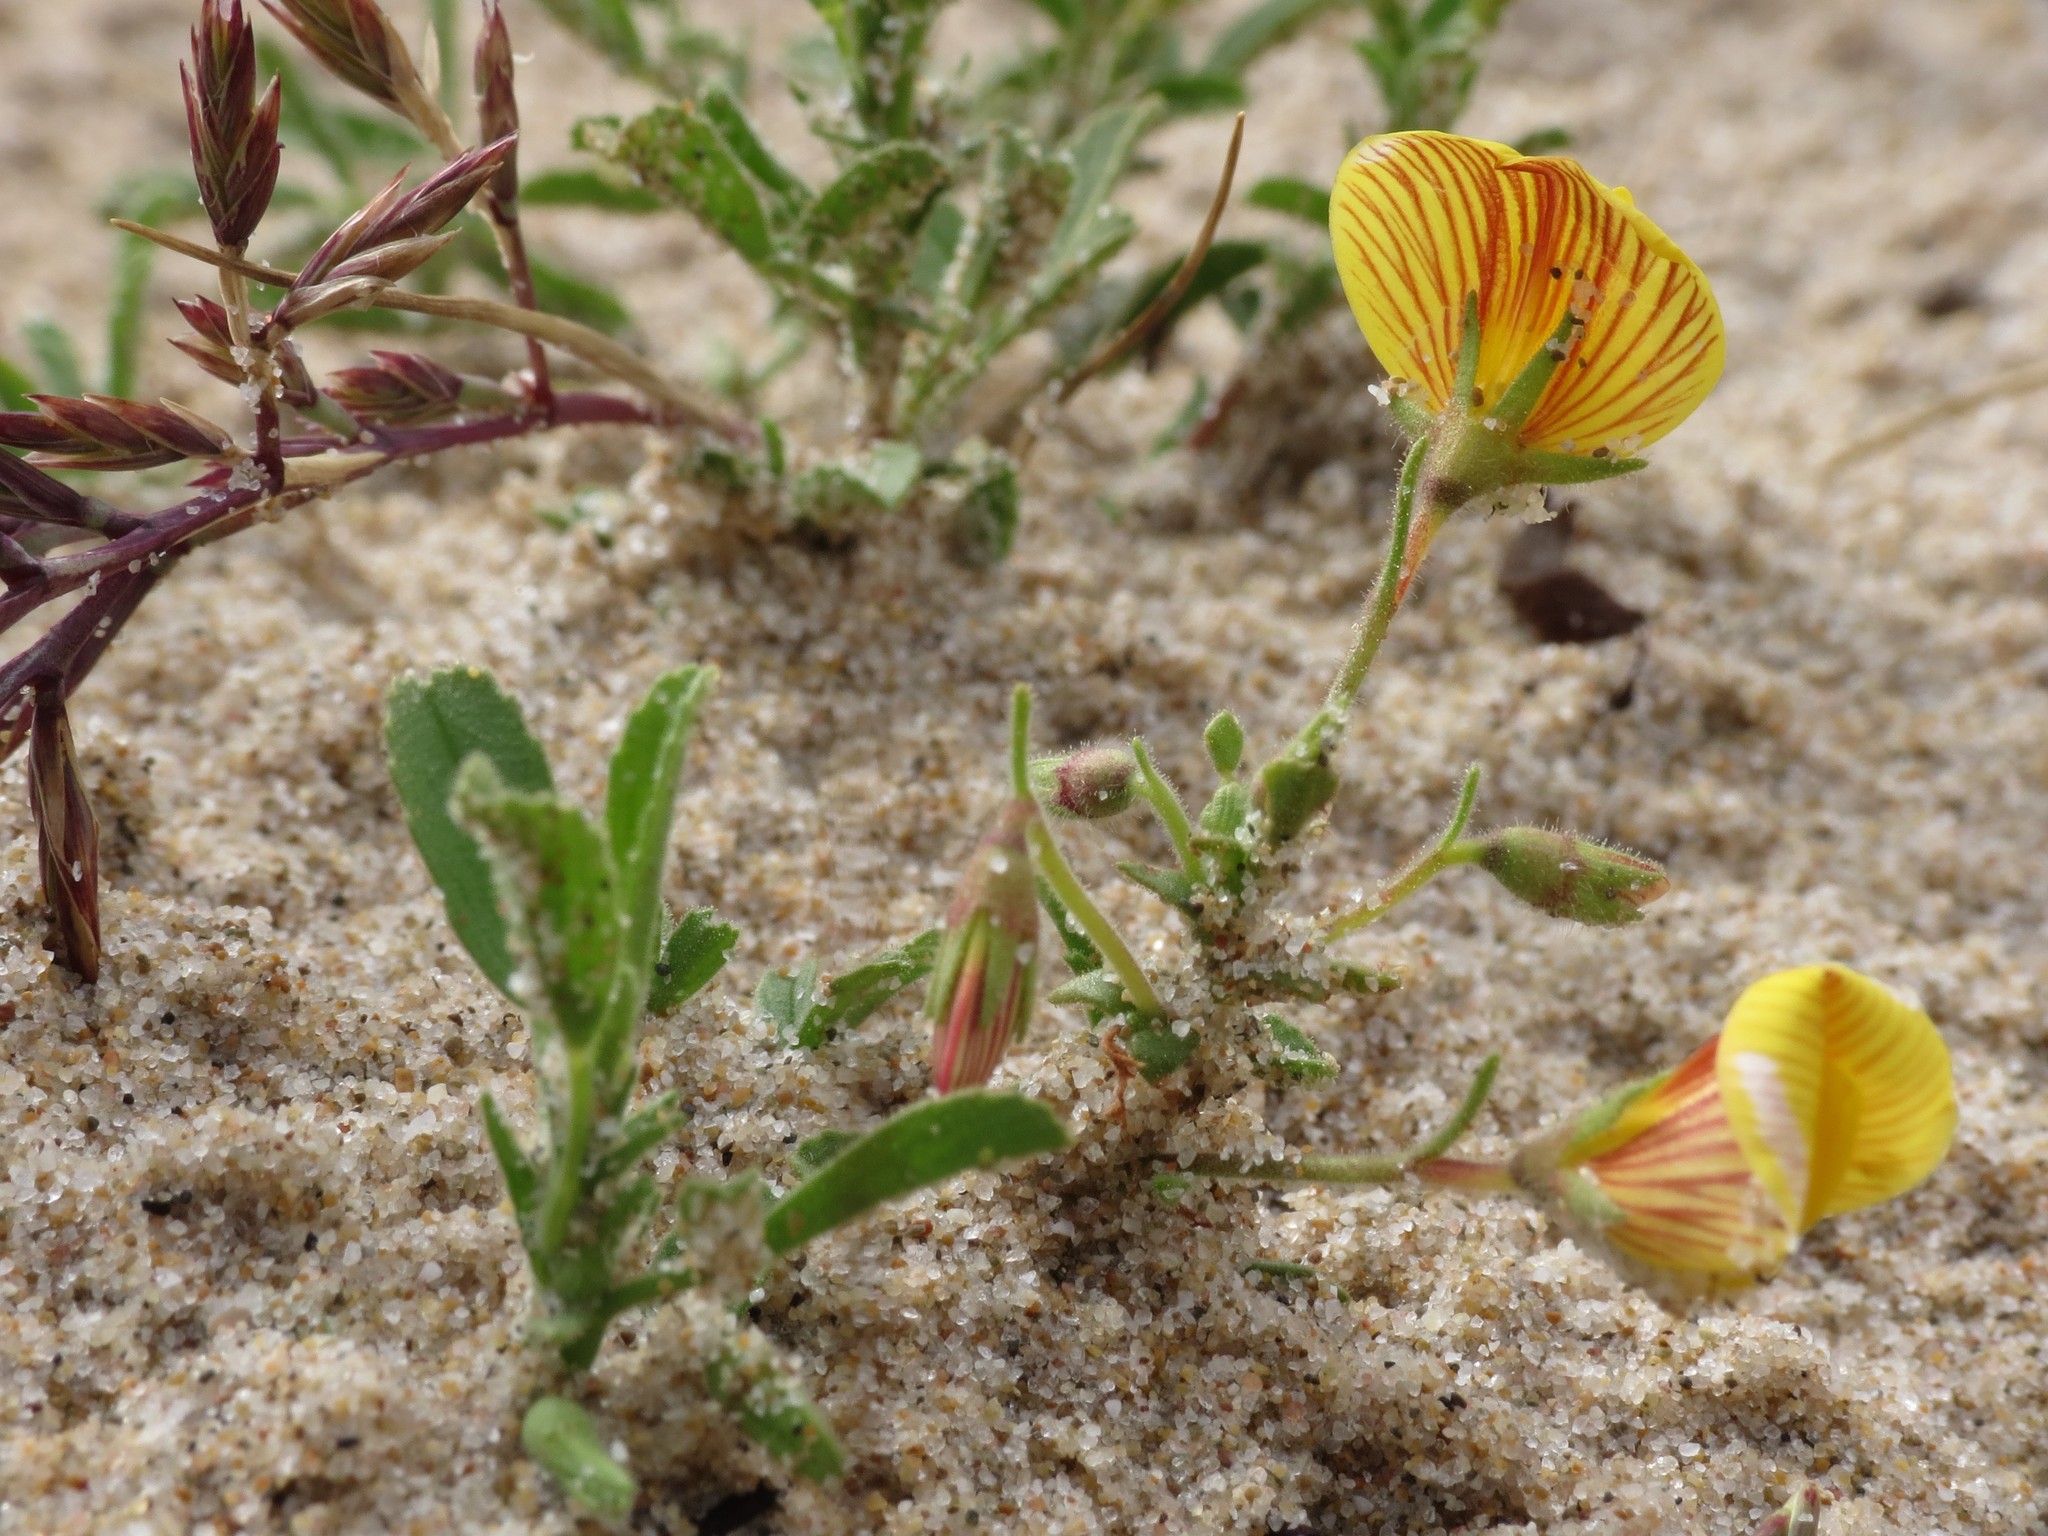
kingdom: Plantae
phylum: Tracheophyta
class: Magnoliopsida
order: Fabales
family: Fabaceae
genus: Ononis
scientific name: Ononis natrix
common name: Yellow restharrow
